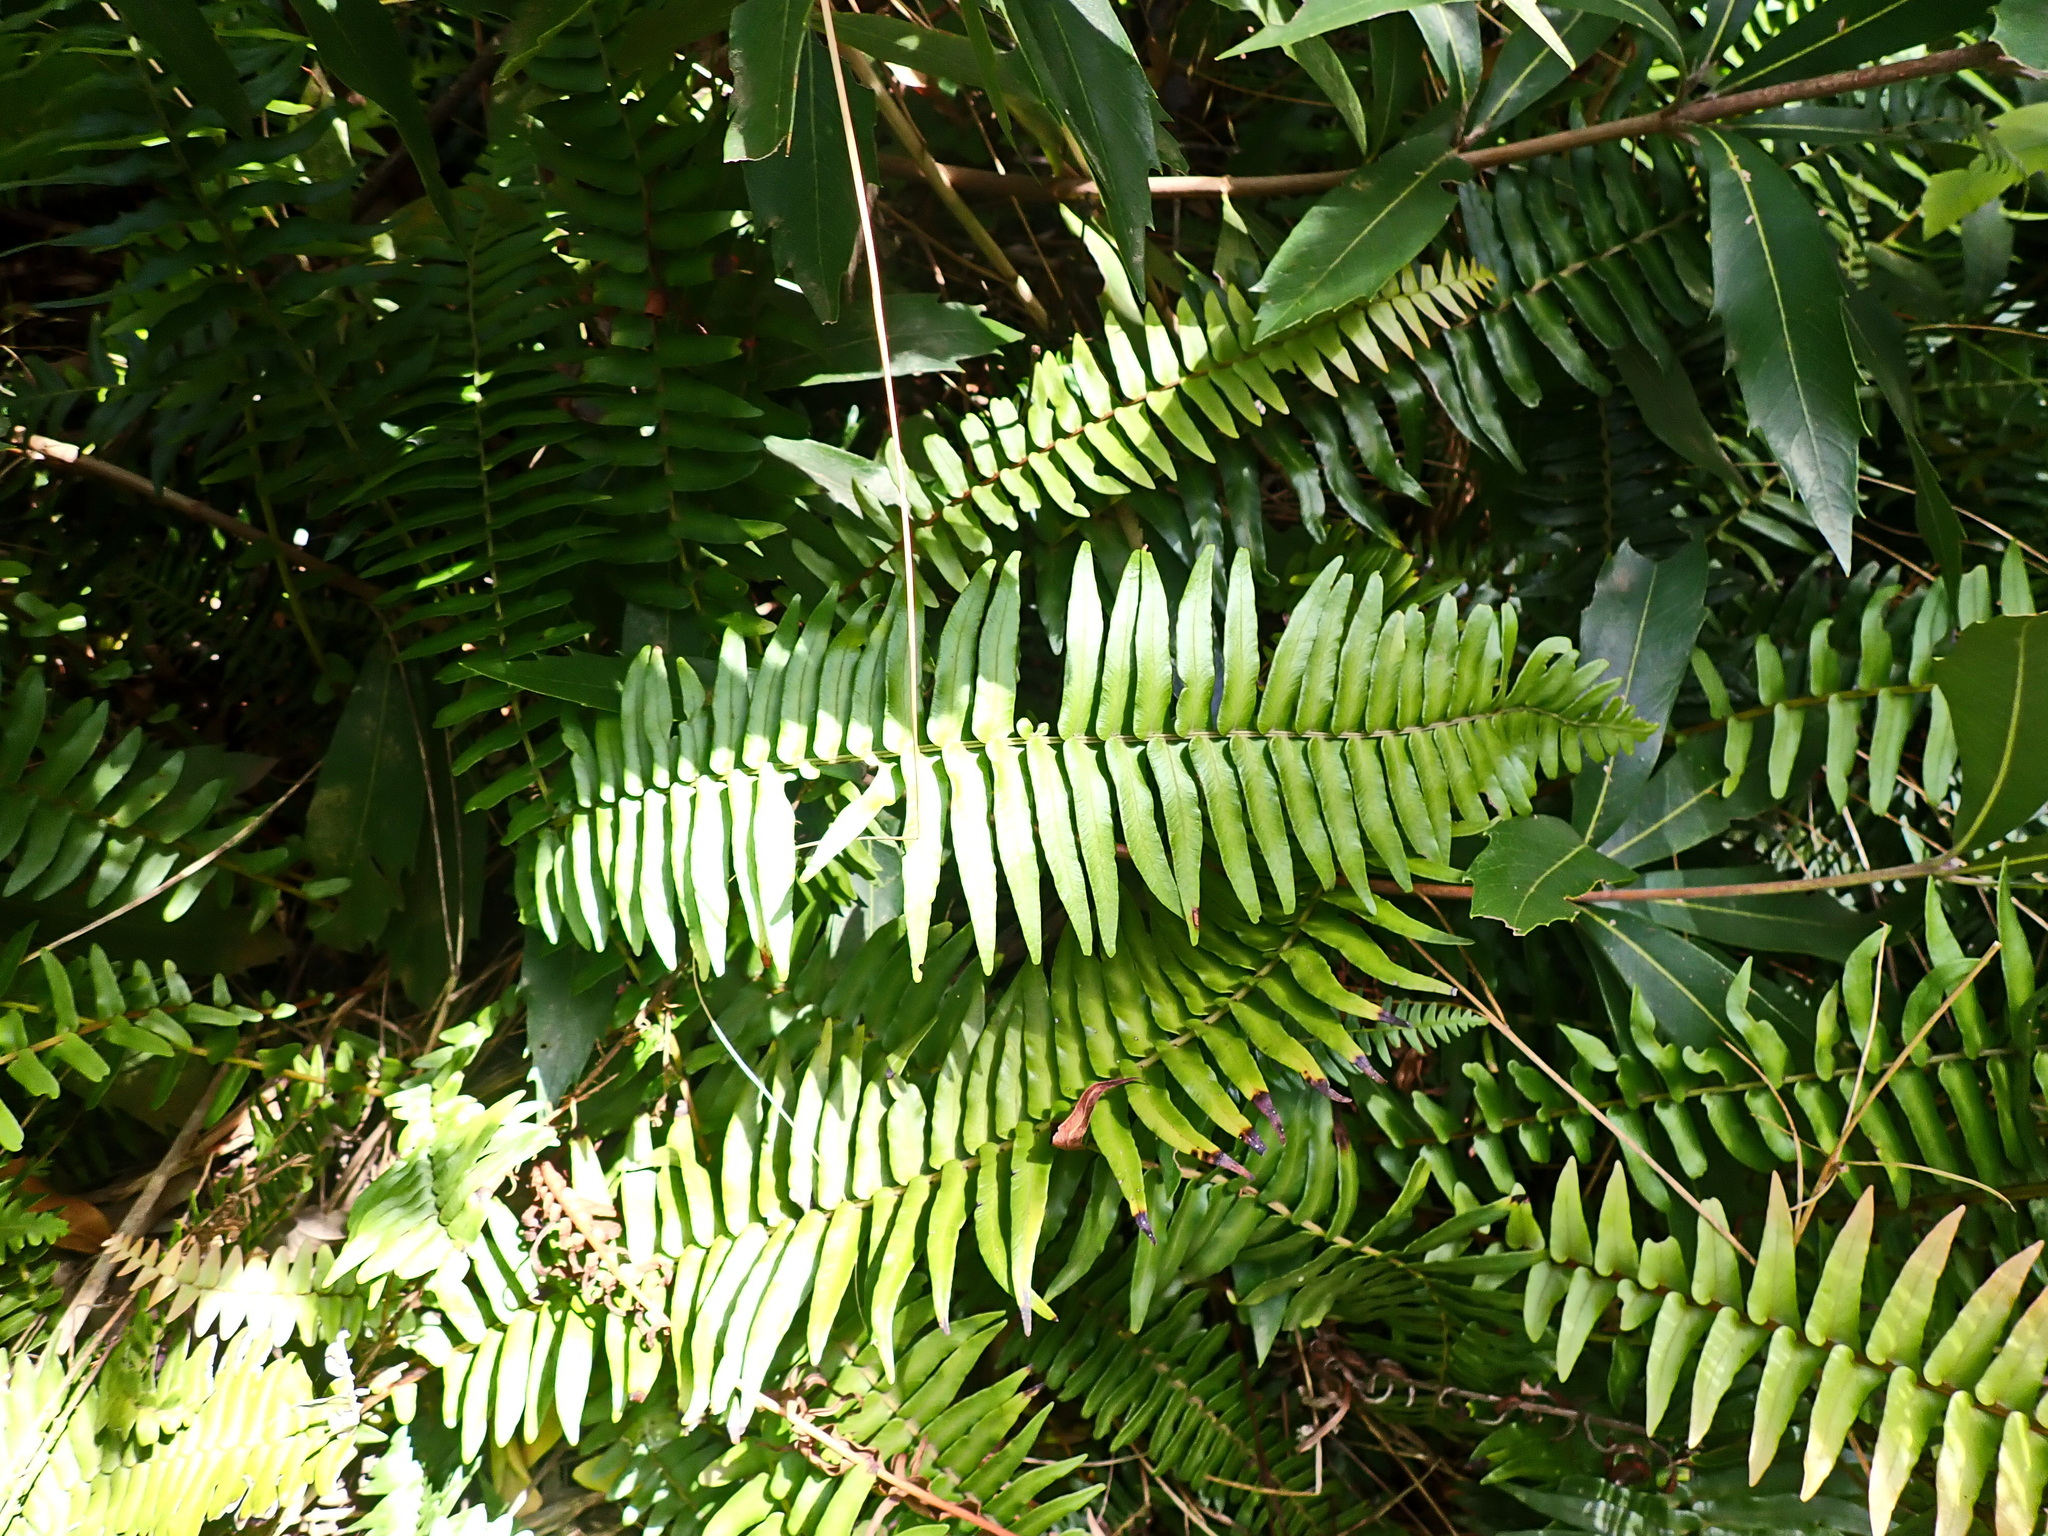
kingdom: Plantae
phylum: Tracheophyta
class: Polypodiopsida
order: Polypodiales
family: Blechnaceae
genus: Blechnum
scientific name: Blechnum punctulatum
